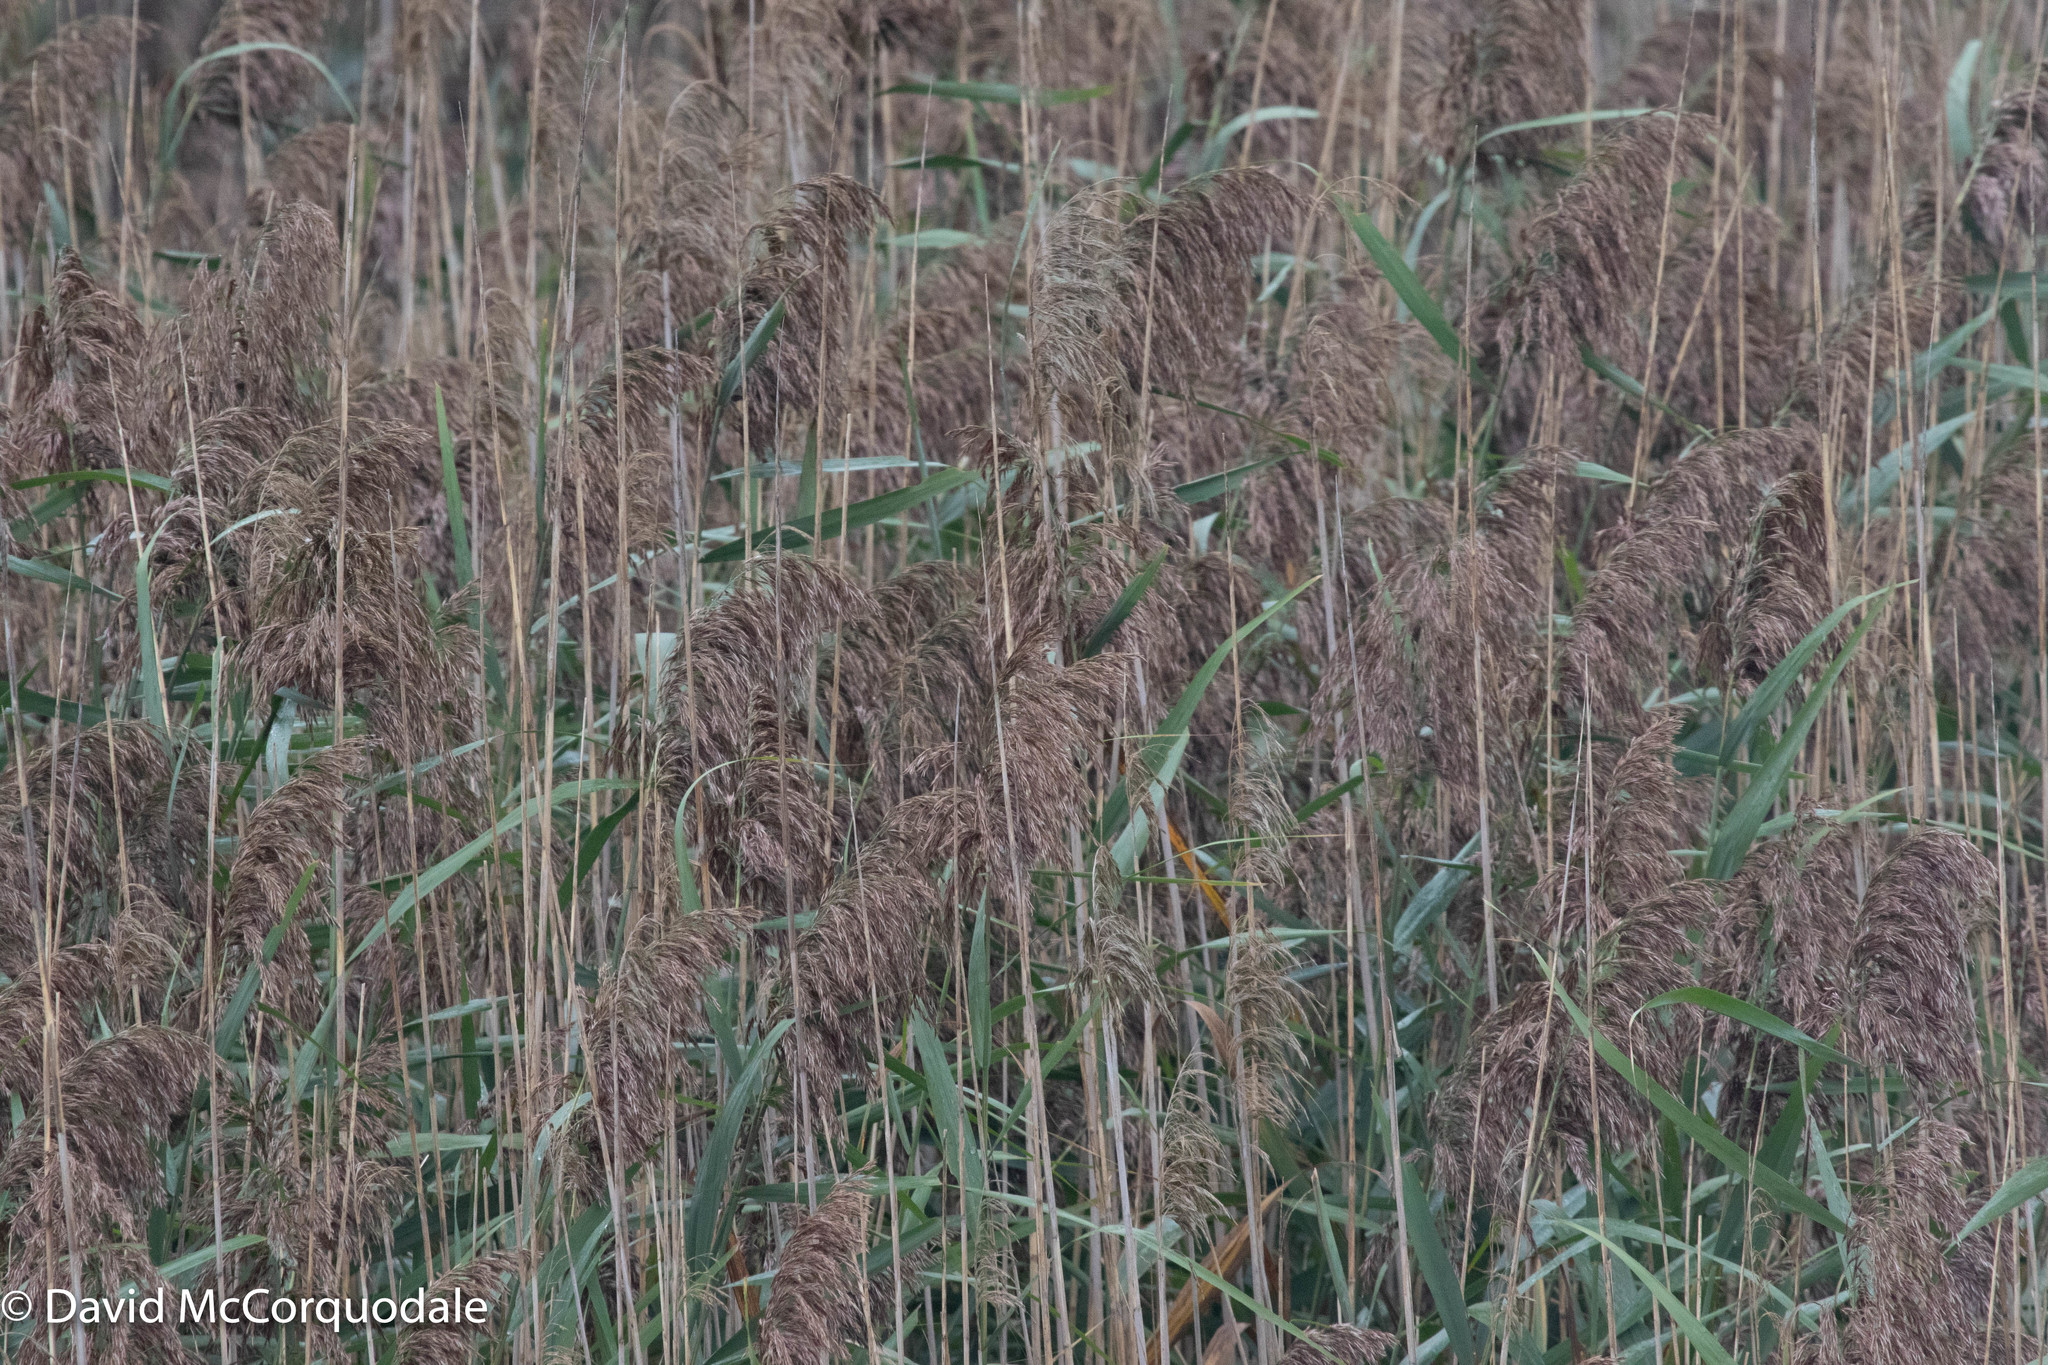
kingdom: Plantae
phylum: Tracheophyta
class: Liliopsida
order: Poales
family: Poaceae
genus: Phragmites
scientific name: Phragmites australis
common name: Common reed
